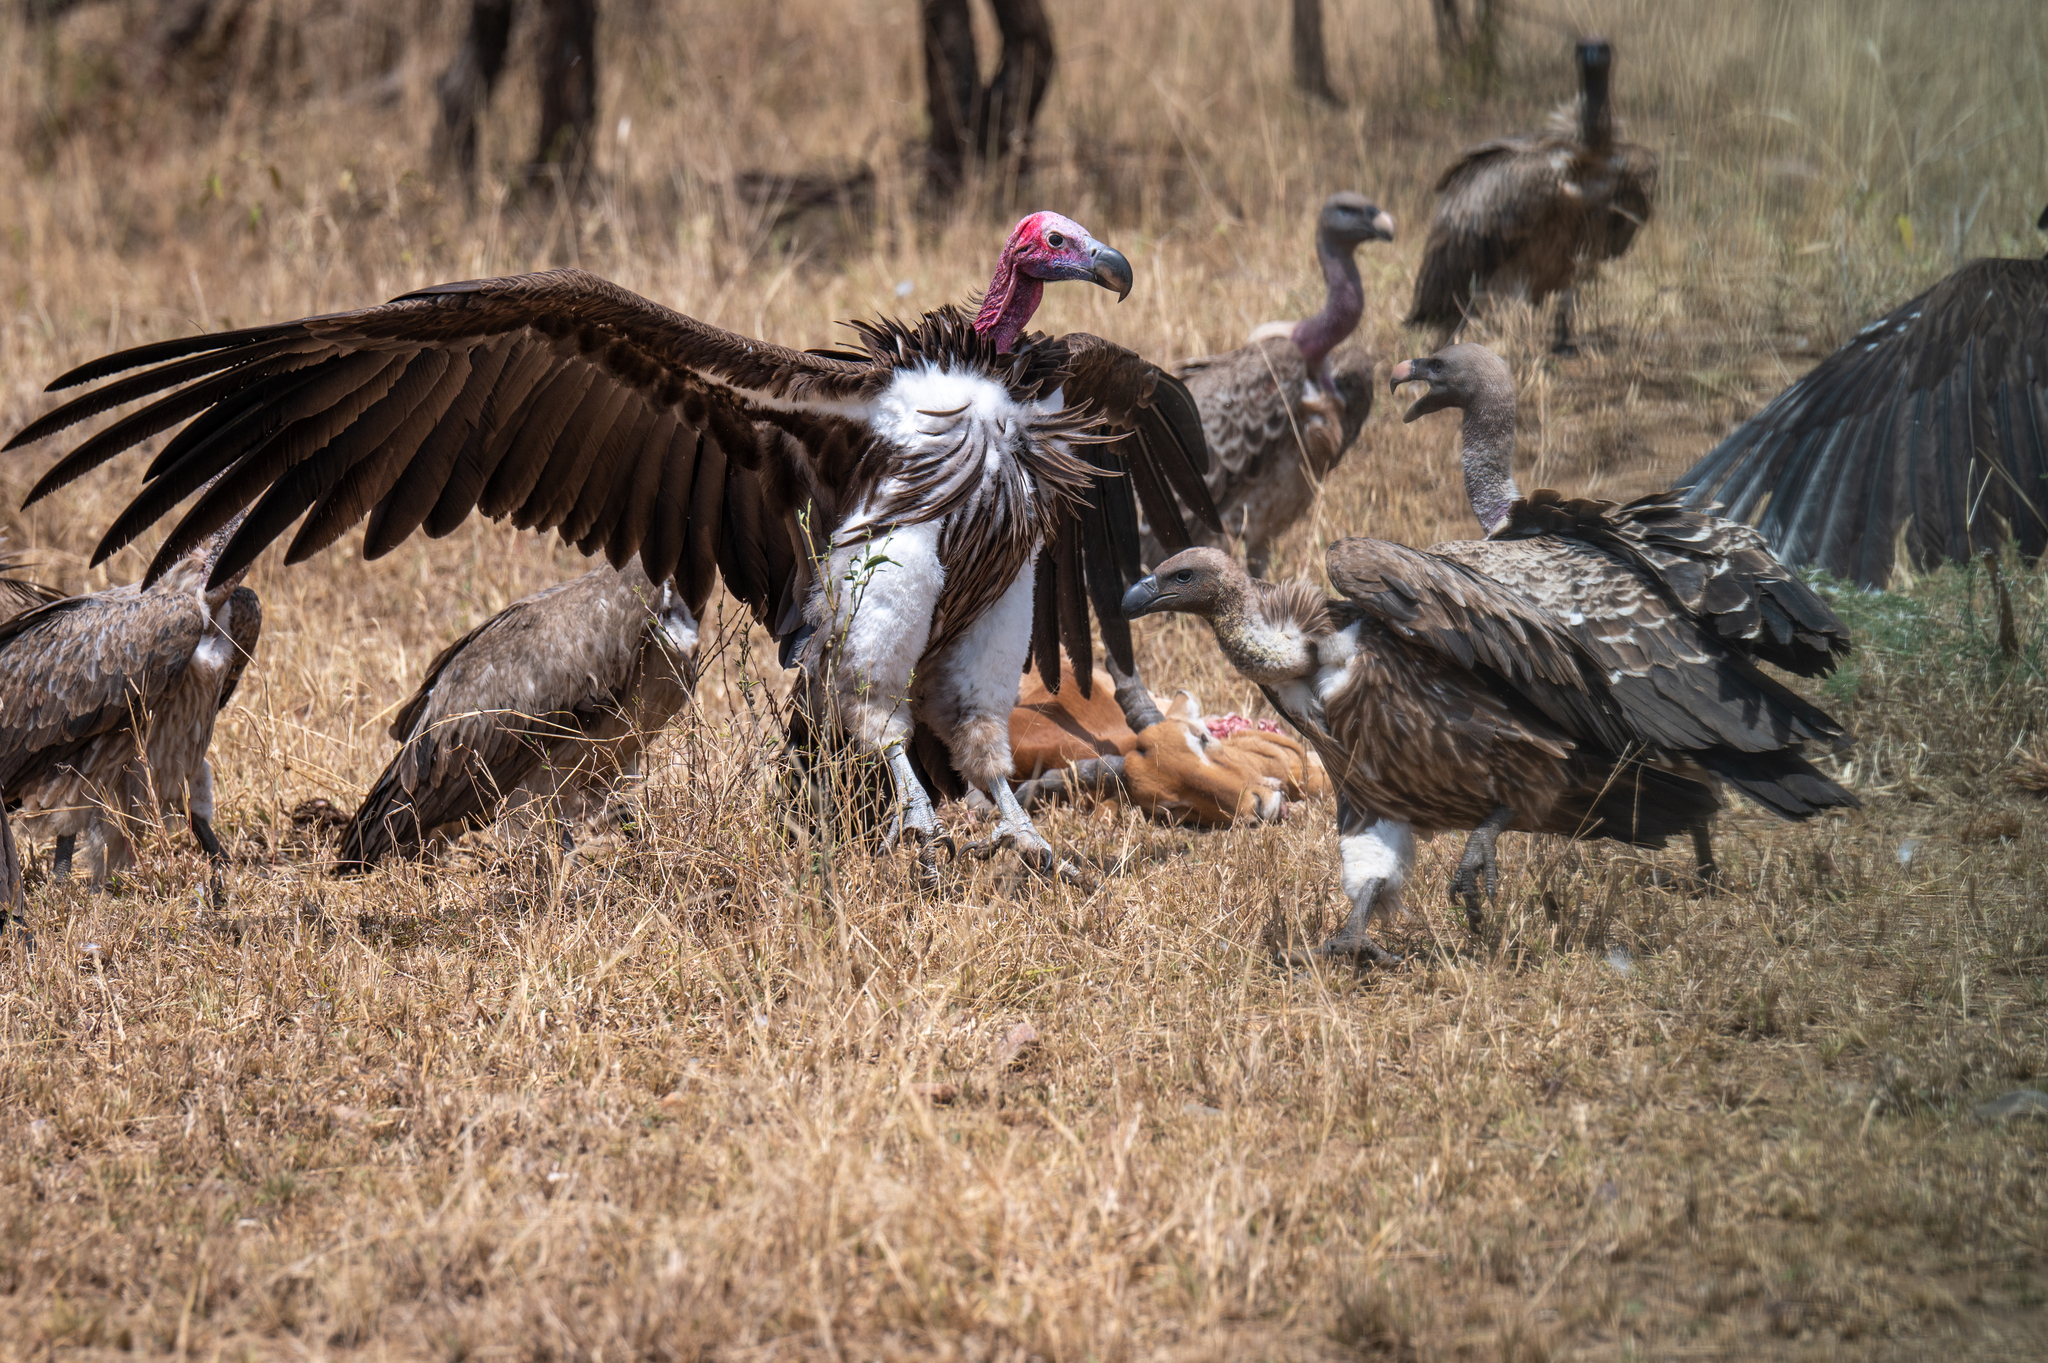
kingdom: Animalia
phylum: Chordata
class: Aves
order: Accipitriformes
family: Accipitridae
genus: Torgos
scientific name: Torgos tracheliotos
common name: Lappet-faced vulture
